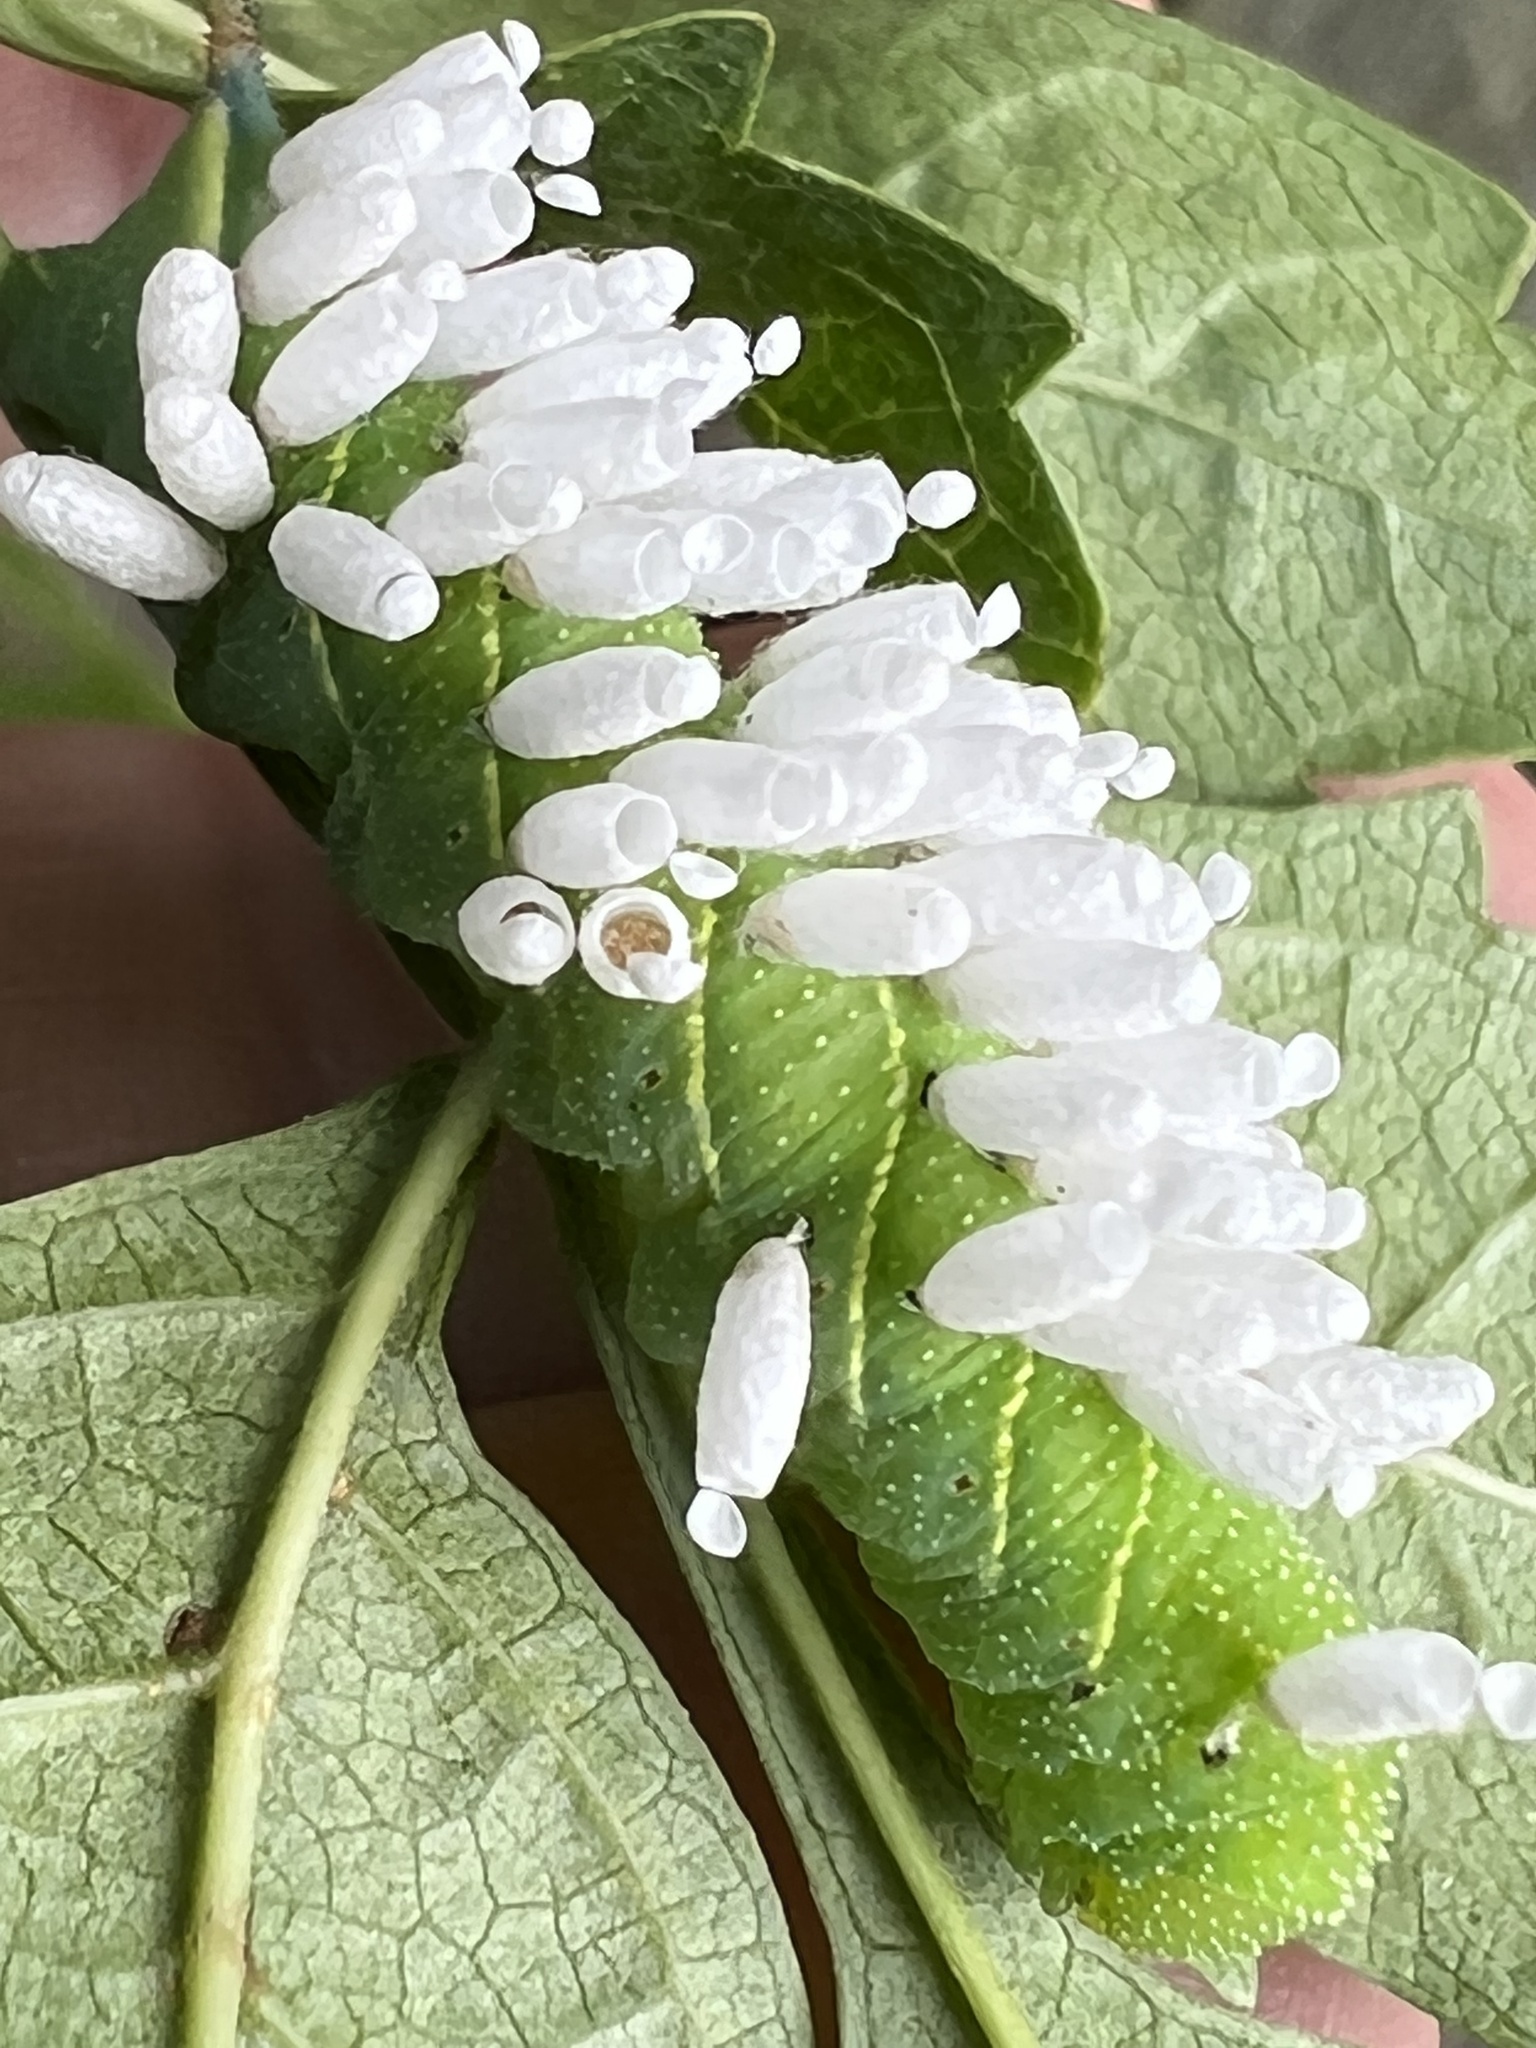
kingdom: Animalia
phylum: Arthropoda
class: Insecta
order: Lepidoptera
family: Sphingidae
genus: Paratrea
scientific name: Paratrea plebeja
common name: Plebian sphinx
